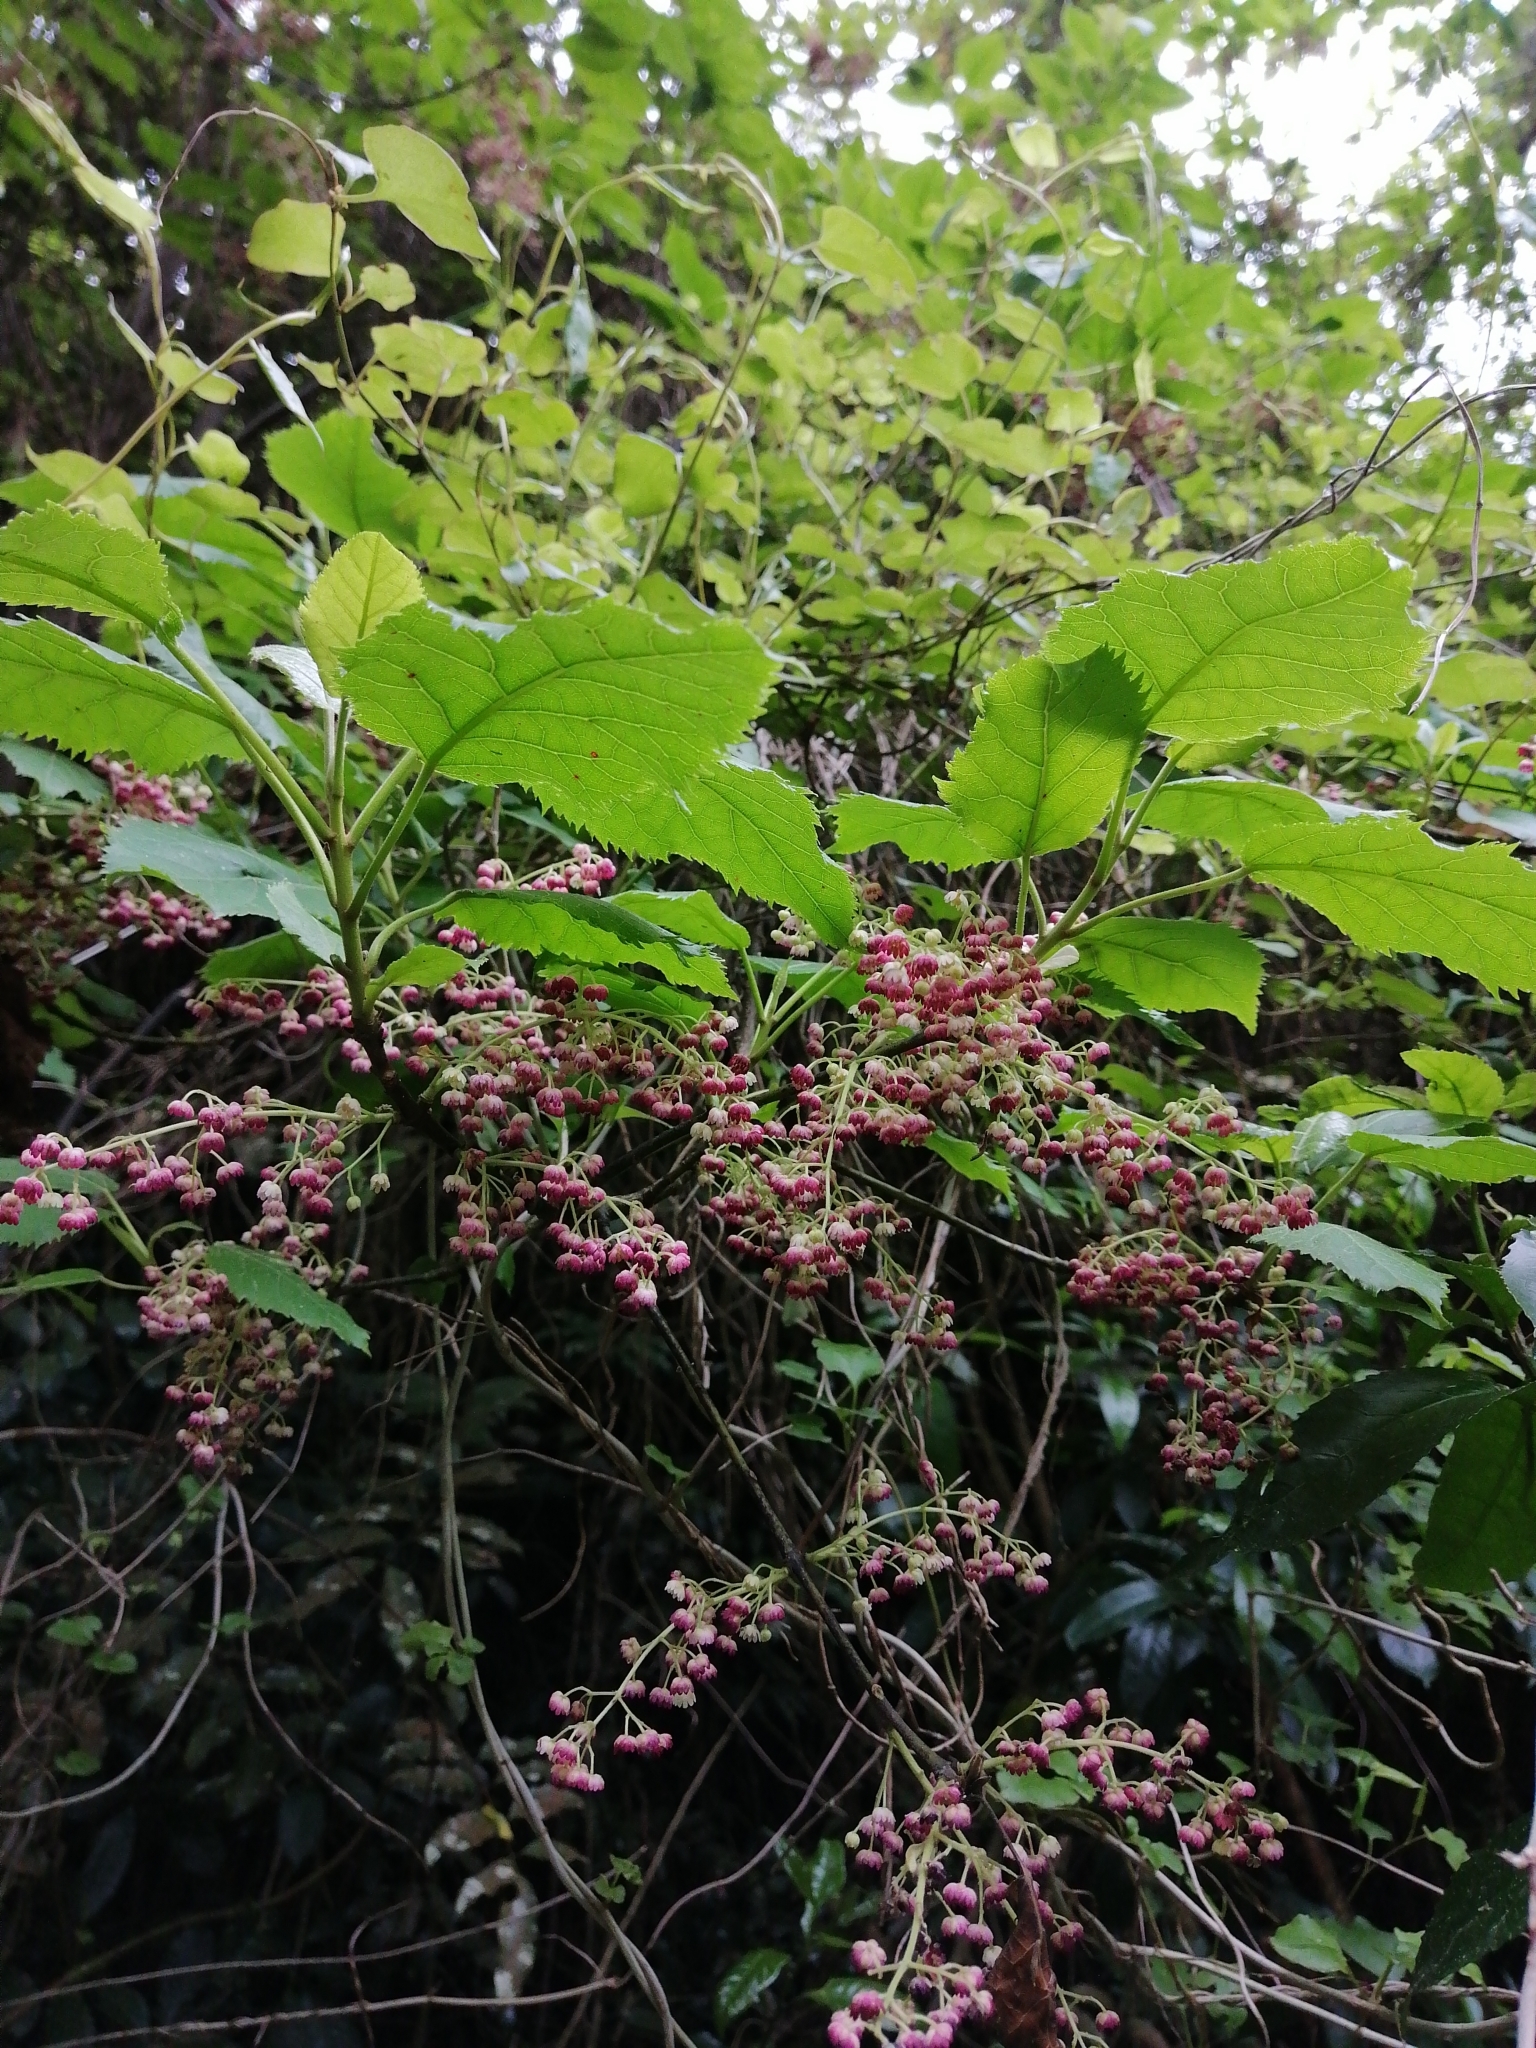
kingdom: Plantae
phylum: Tracheophyta
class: Magnoliopsida
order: Oxalidales
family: Elaeocarpaceae
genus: Aristotelia
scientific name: Aristotelia serrata
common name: New zealand wineberry
